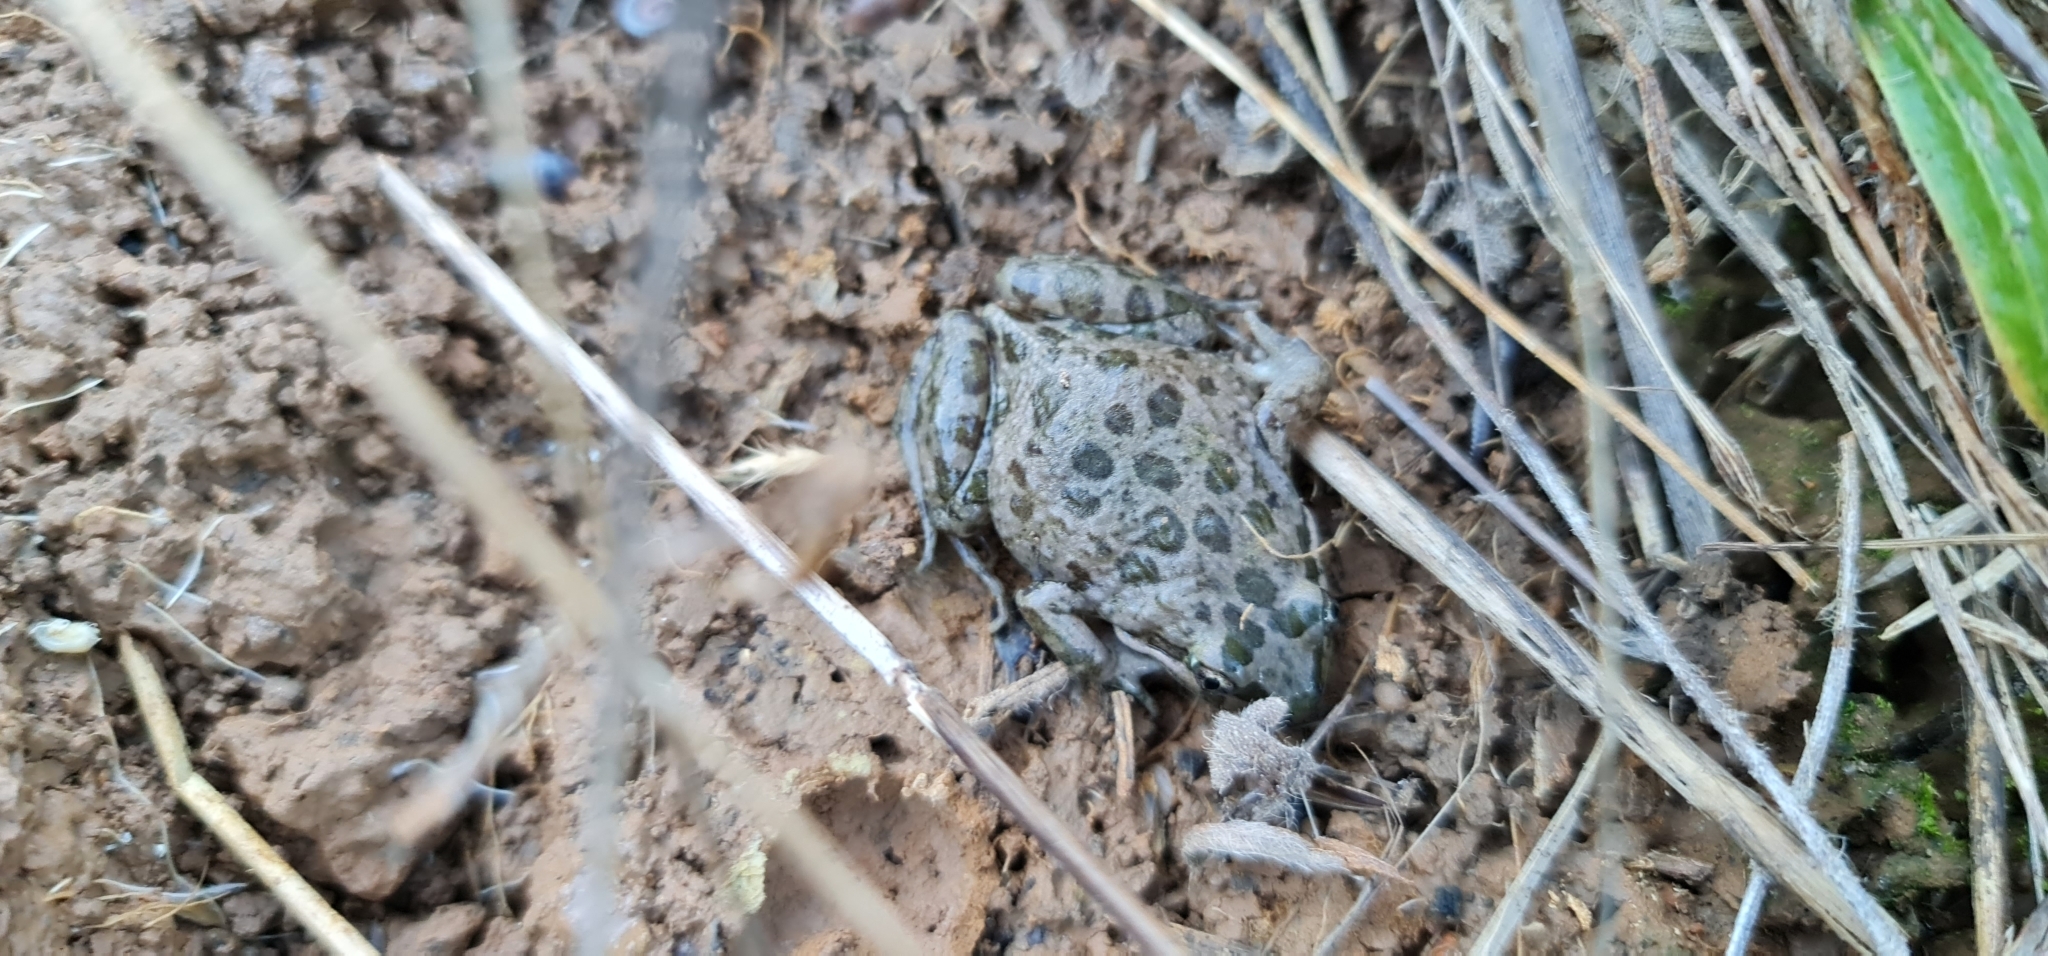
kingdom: Animalia
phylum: Chordata
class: Amphibia
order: Anura
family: Limnodynastidae
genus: Limnodynastes
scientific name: Limnodynastes tasmaniensis
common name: Spotted marsh frog
